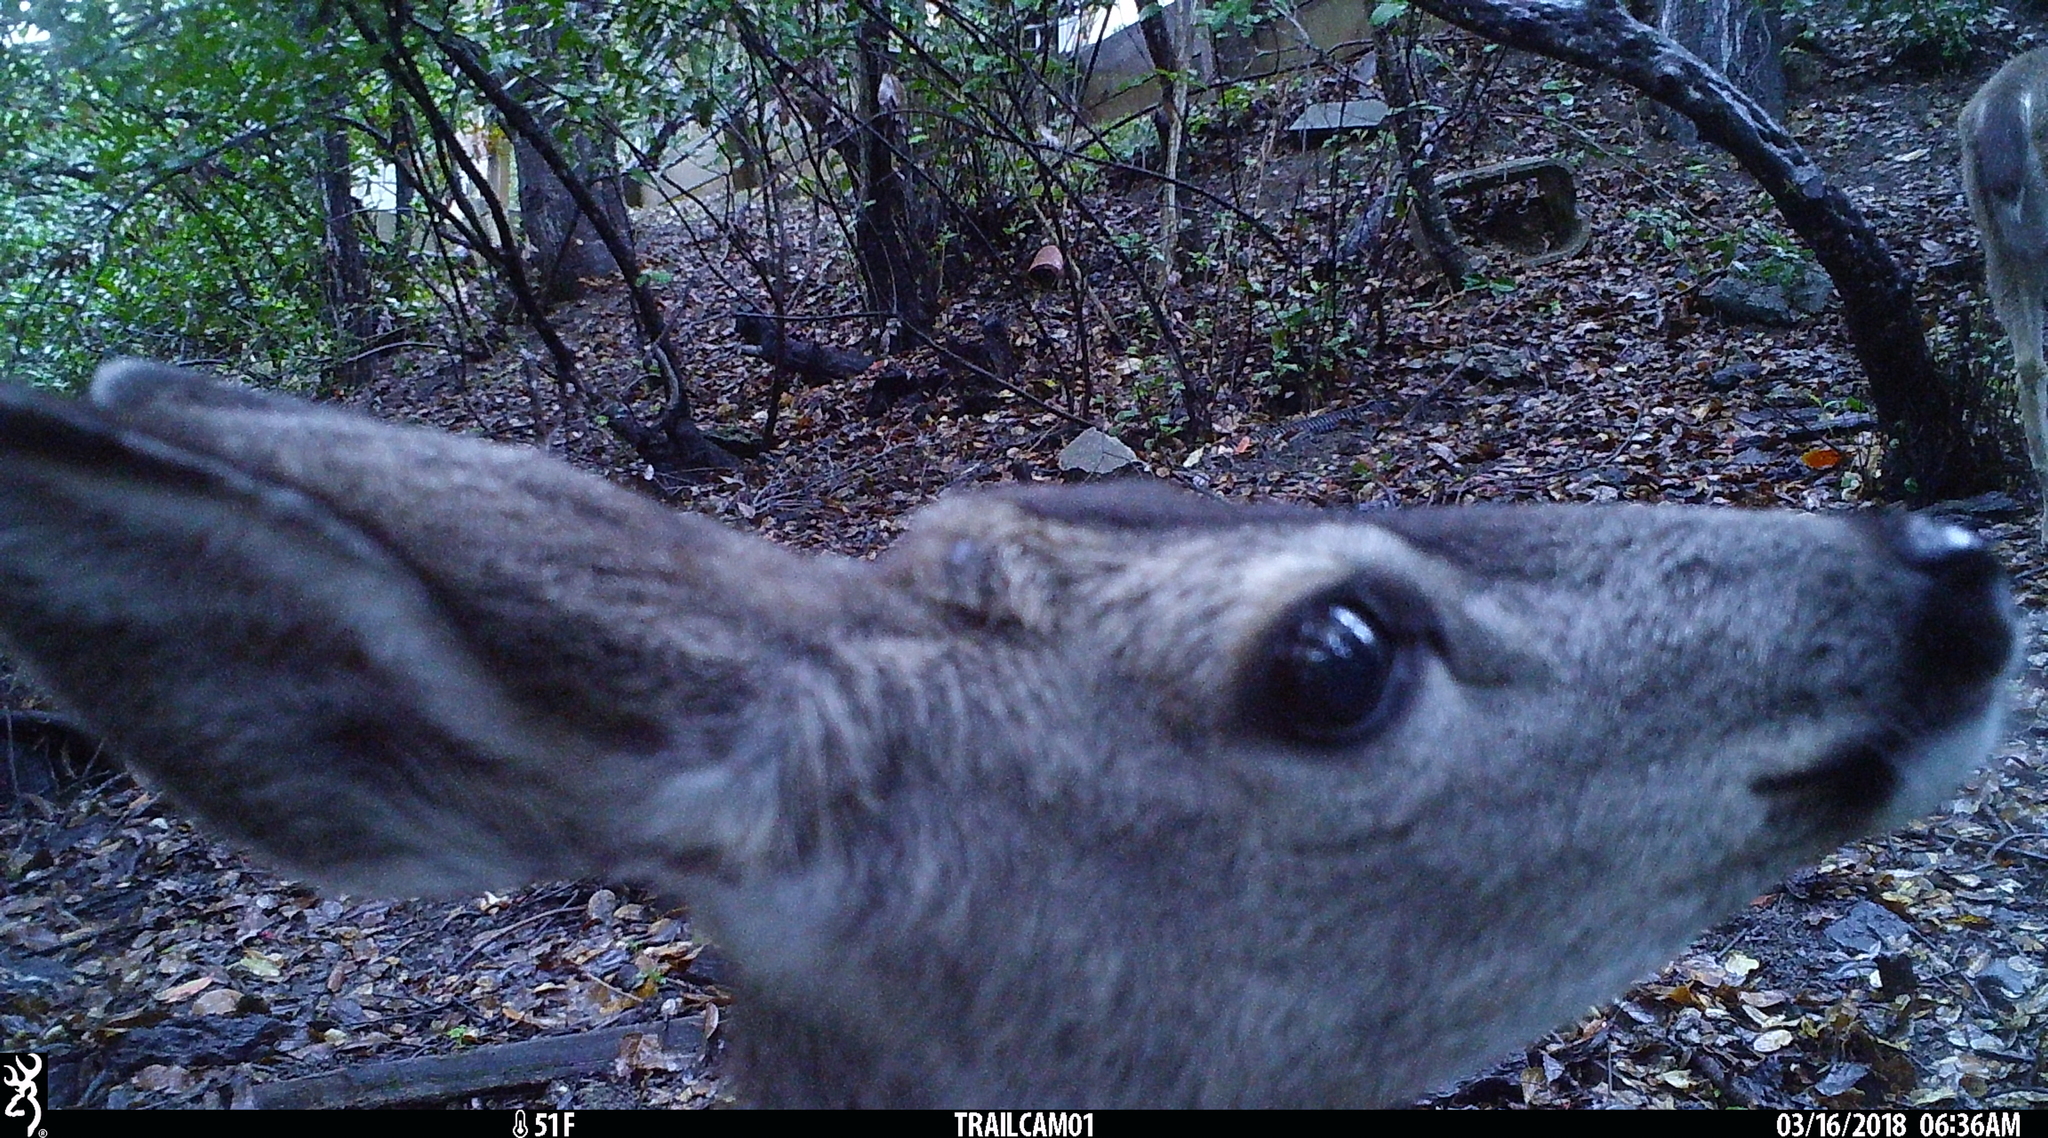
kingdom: Animalia
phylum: Chordata
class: Mammalia
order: Artiodactyla
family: Cervidae
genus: Odocoileus
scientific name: Odocoileus hemionus
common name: Mule deer
